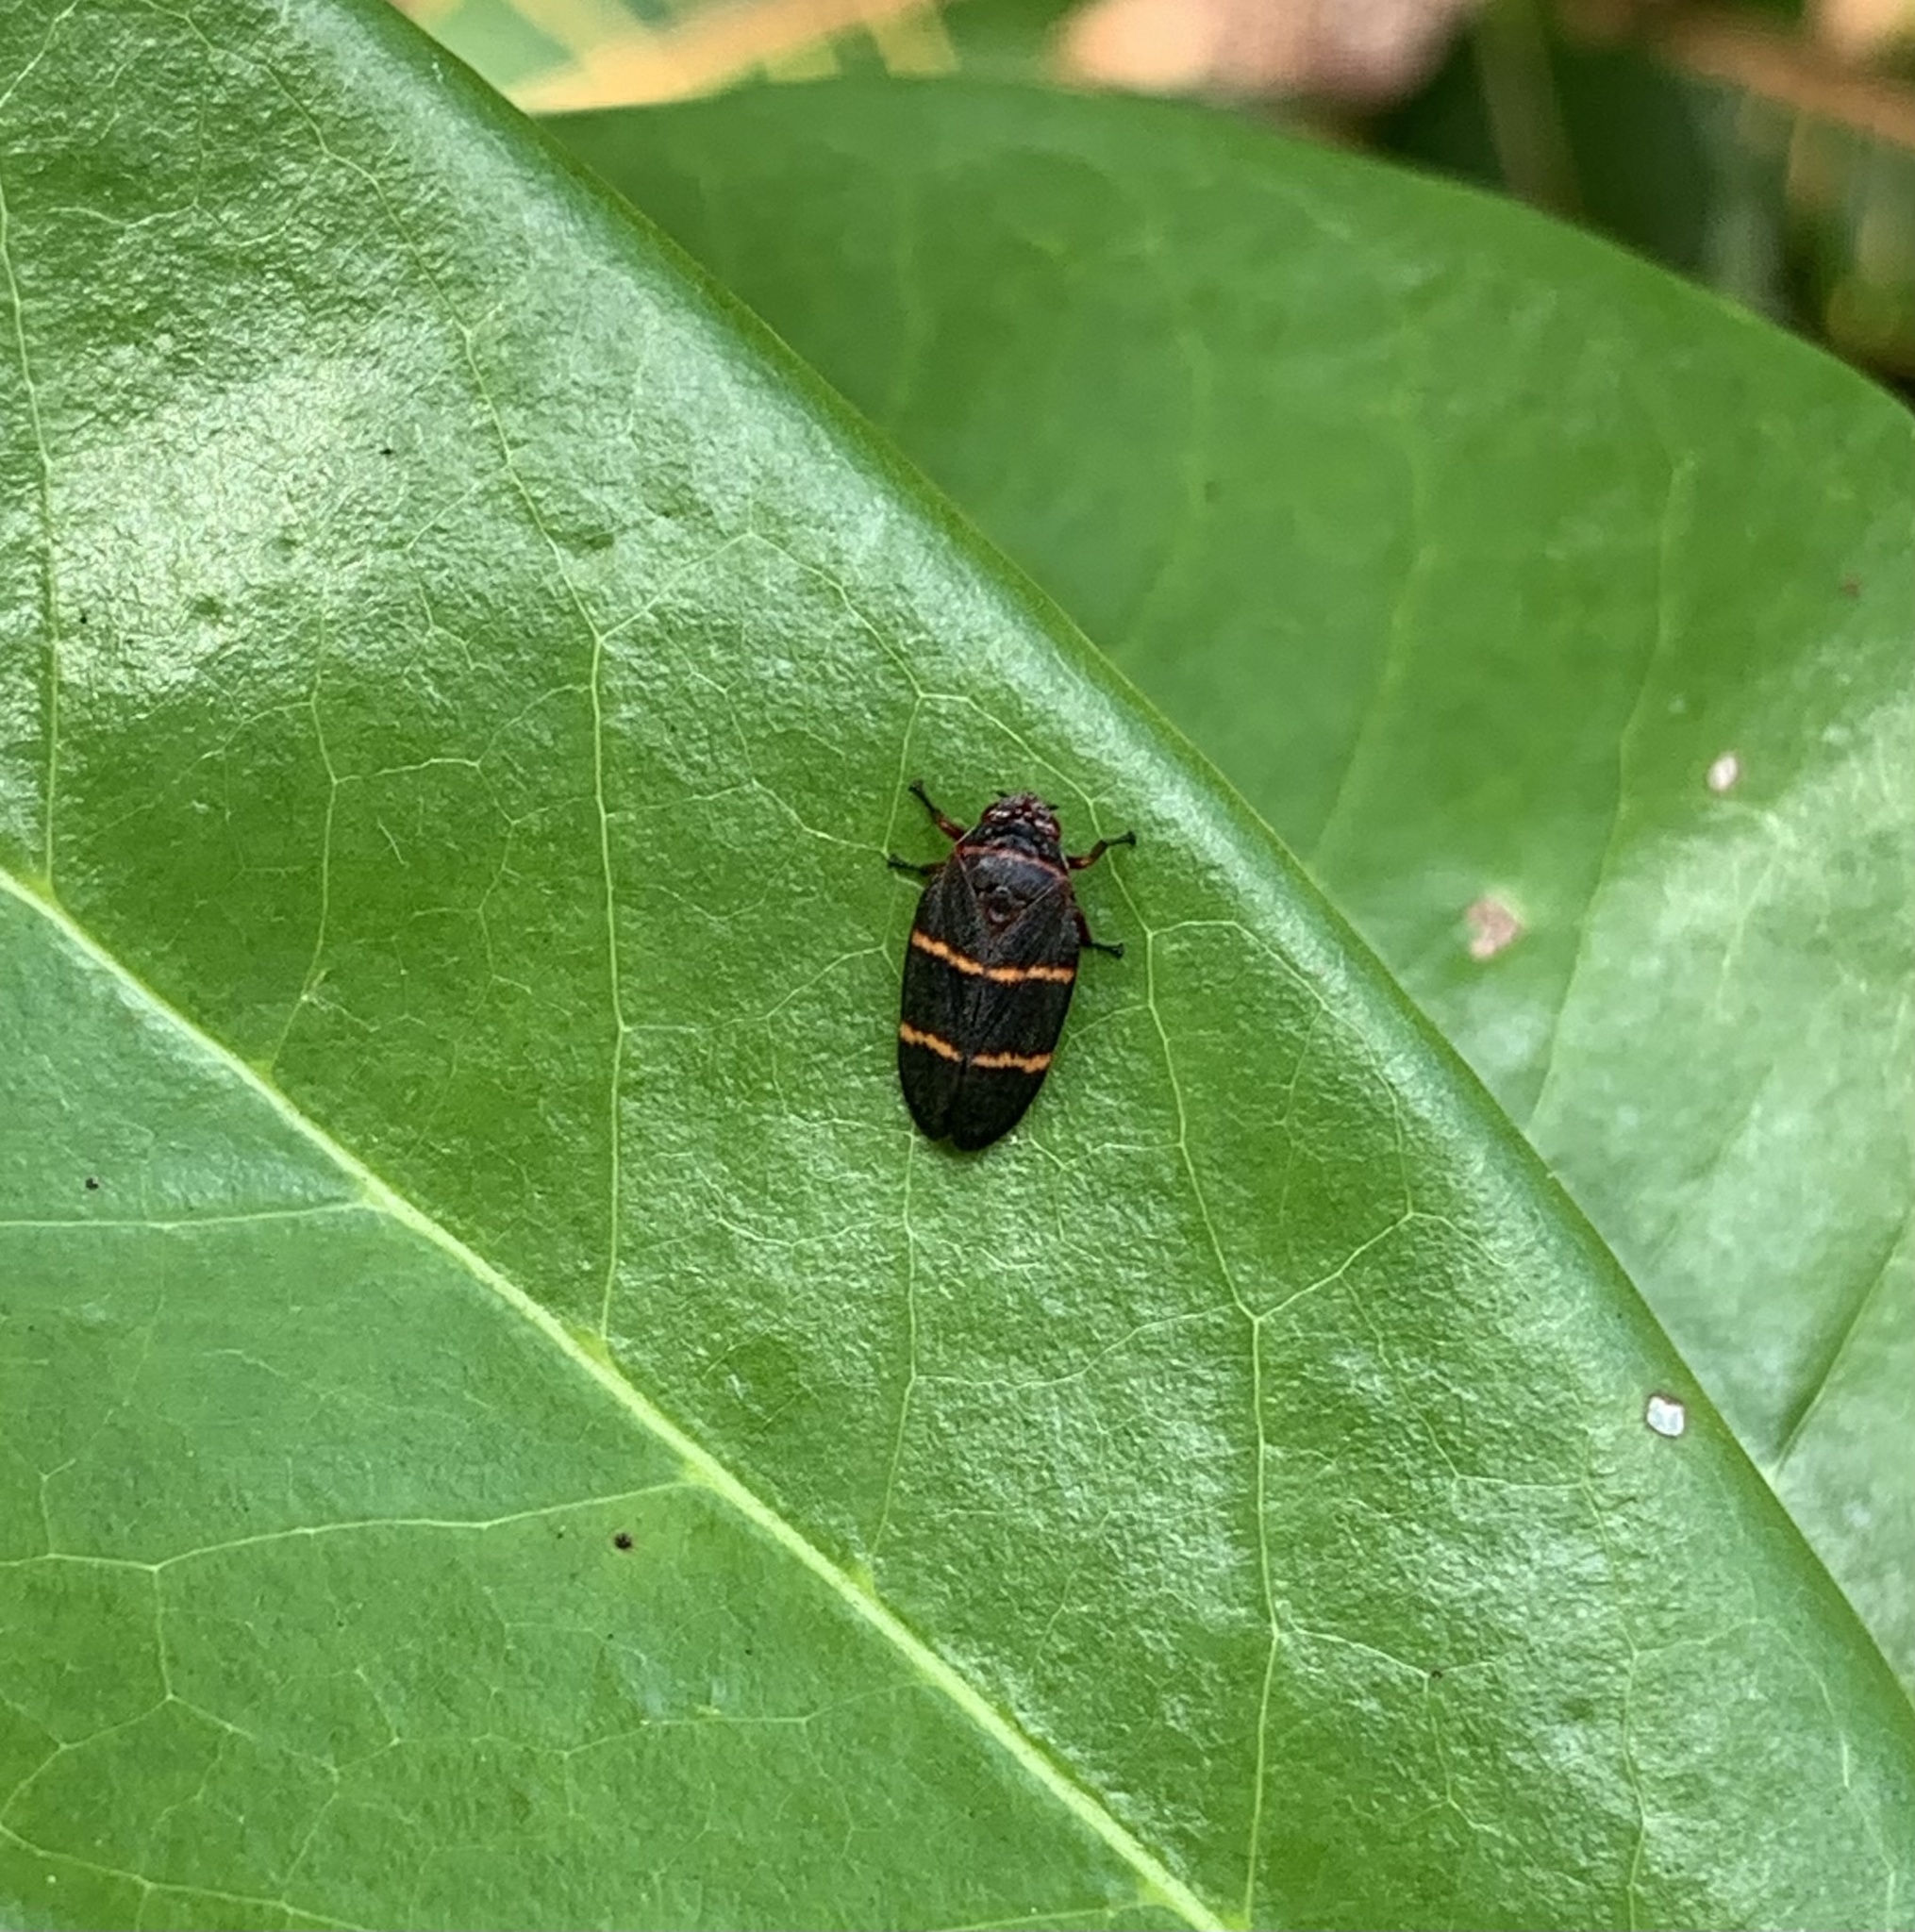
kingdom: Animalia
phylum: Arthropoda
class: Insecta
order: Hemiptera
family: Cercopidae
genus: Prosapia
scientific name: Prosapia bicincta
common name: Twolined spittlebug
